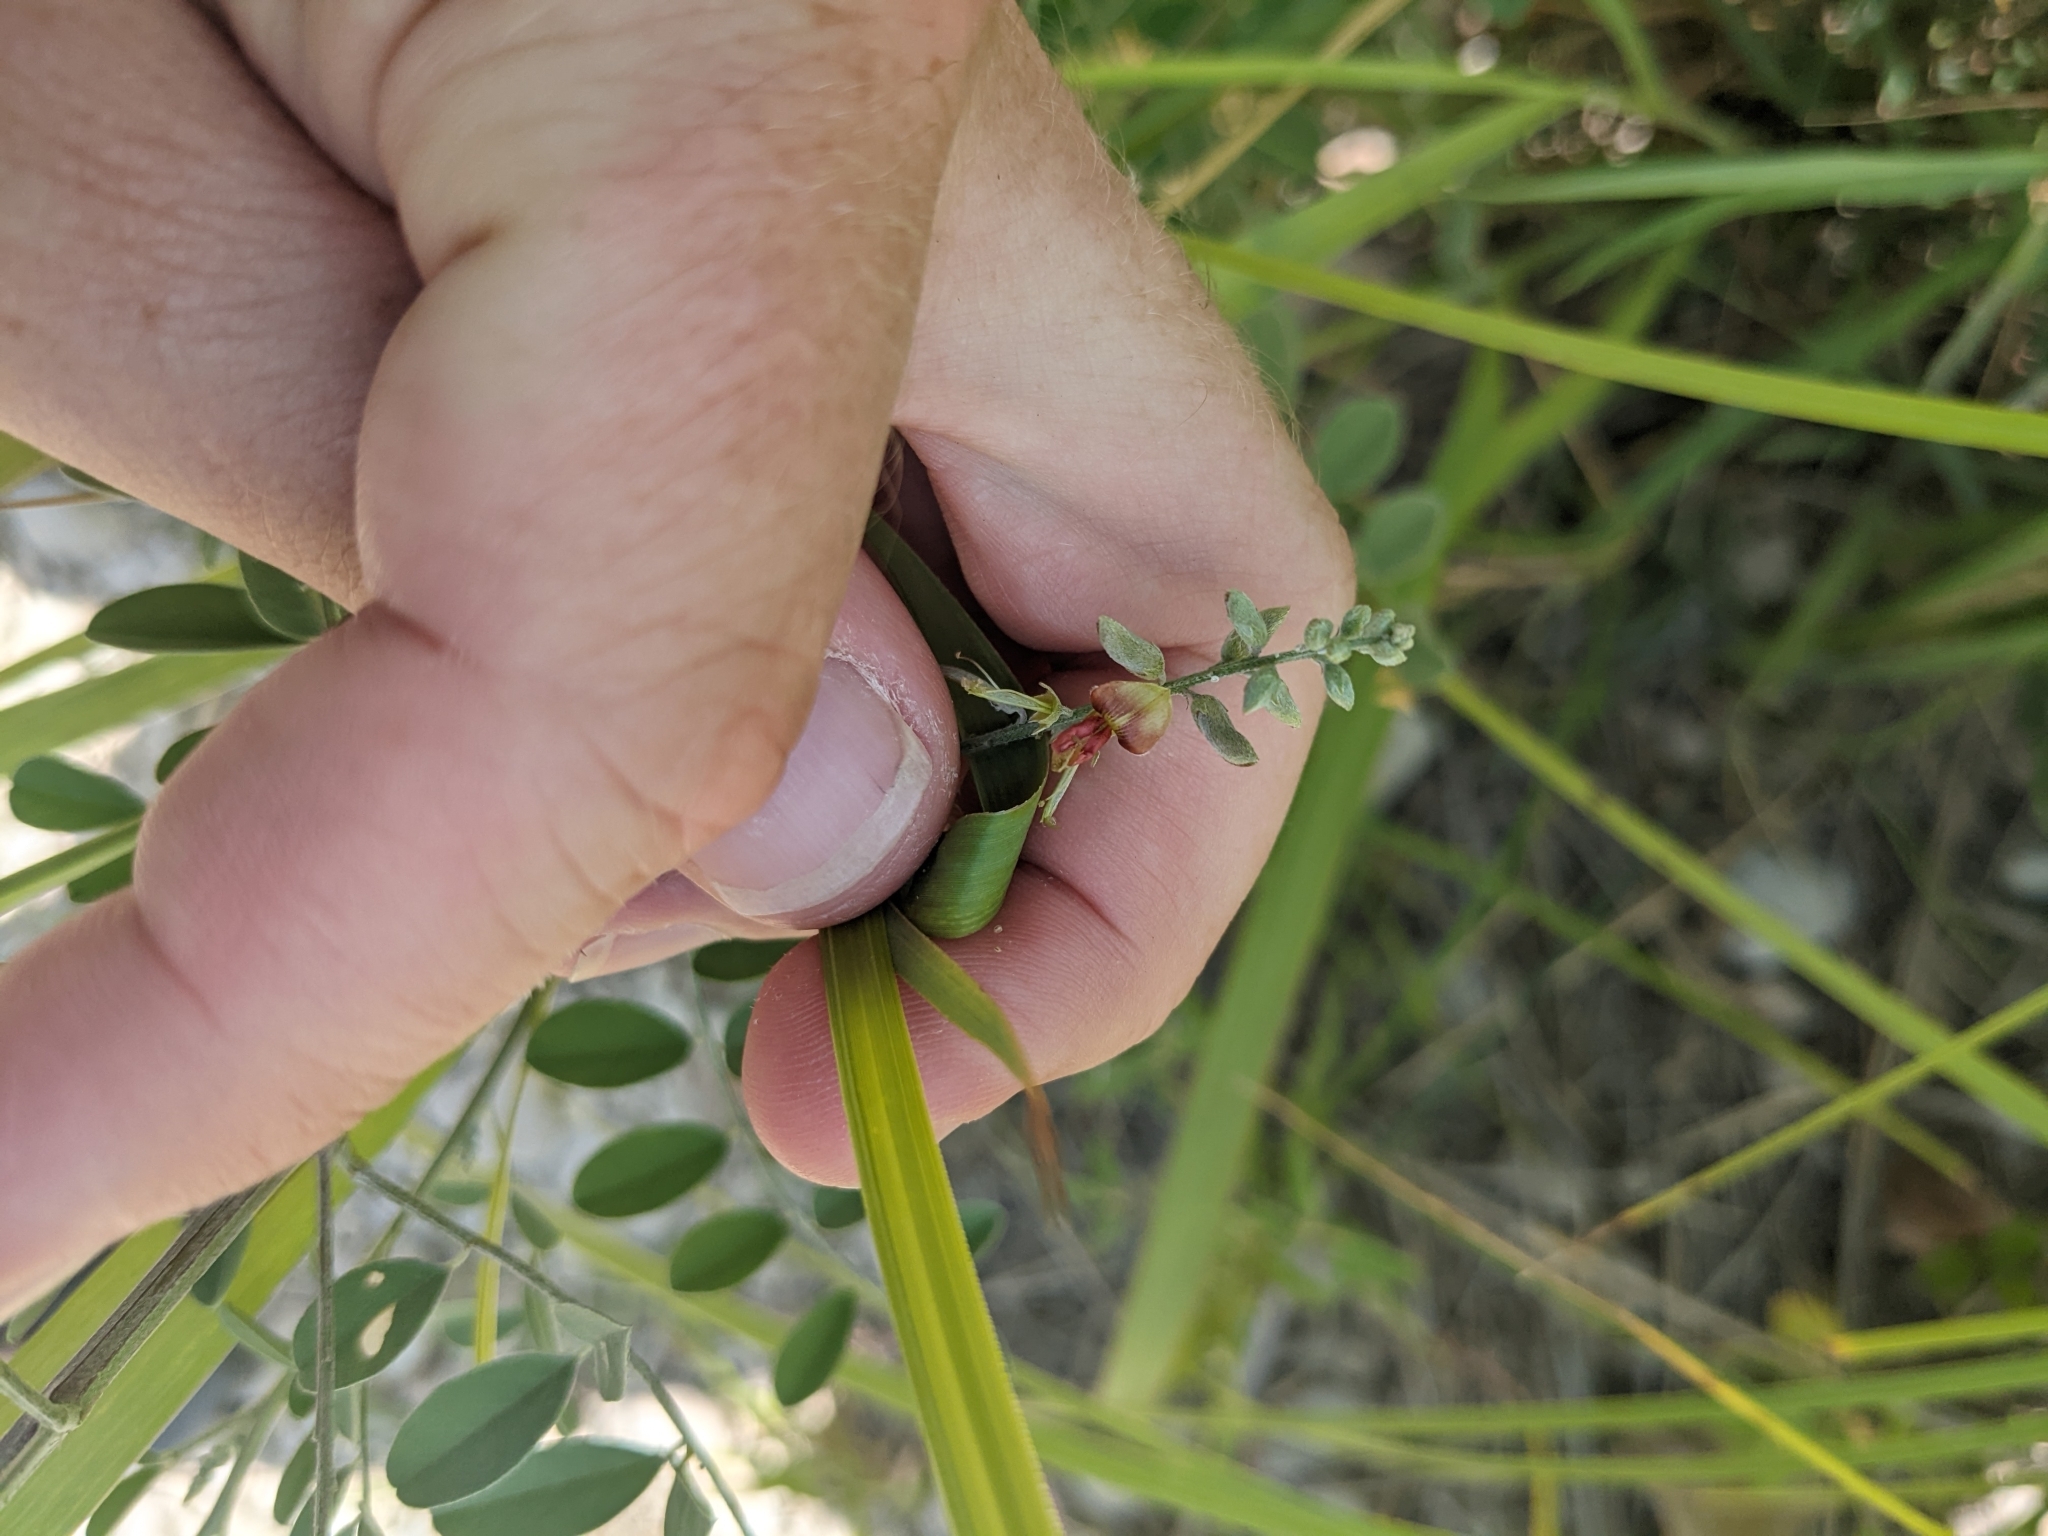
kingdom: Plantae
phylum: Tracheophyta
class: Magnoliopsida
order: Fabales
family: Fabaceae
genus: Indigofera
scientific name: Indigofera lindheimeriana
